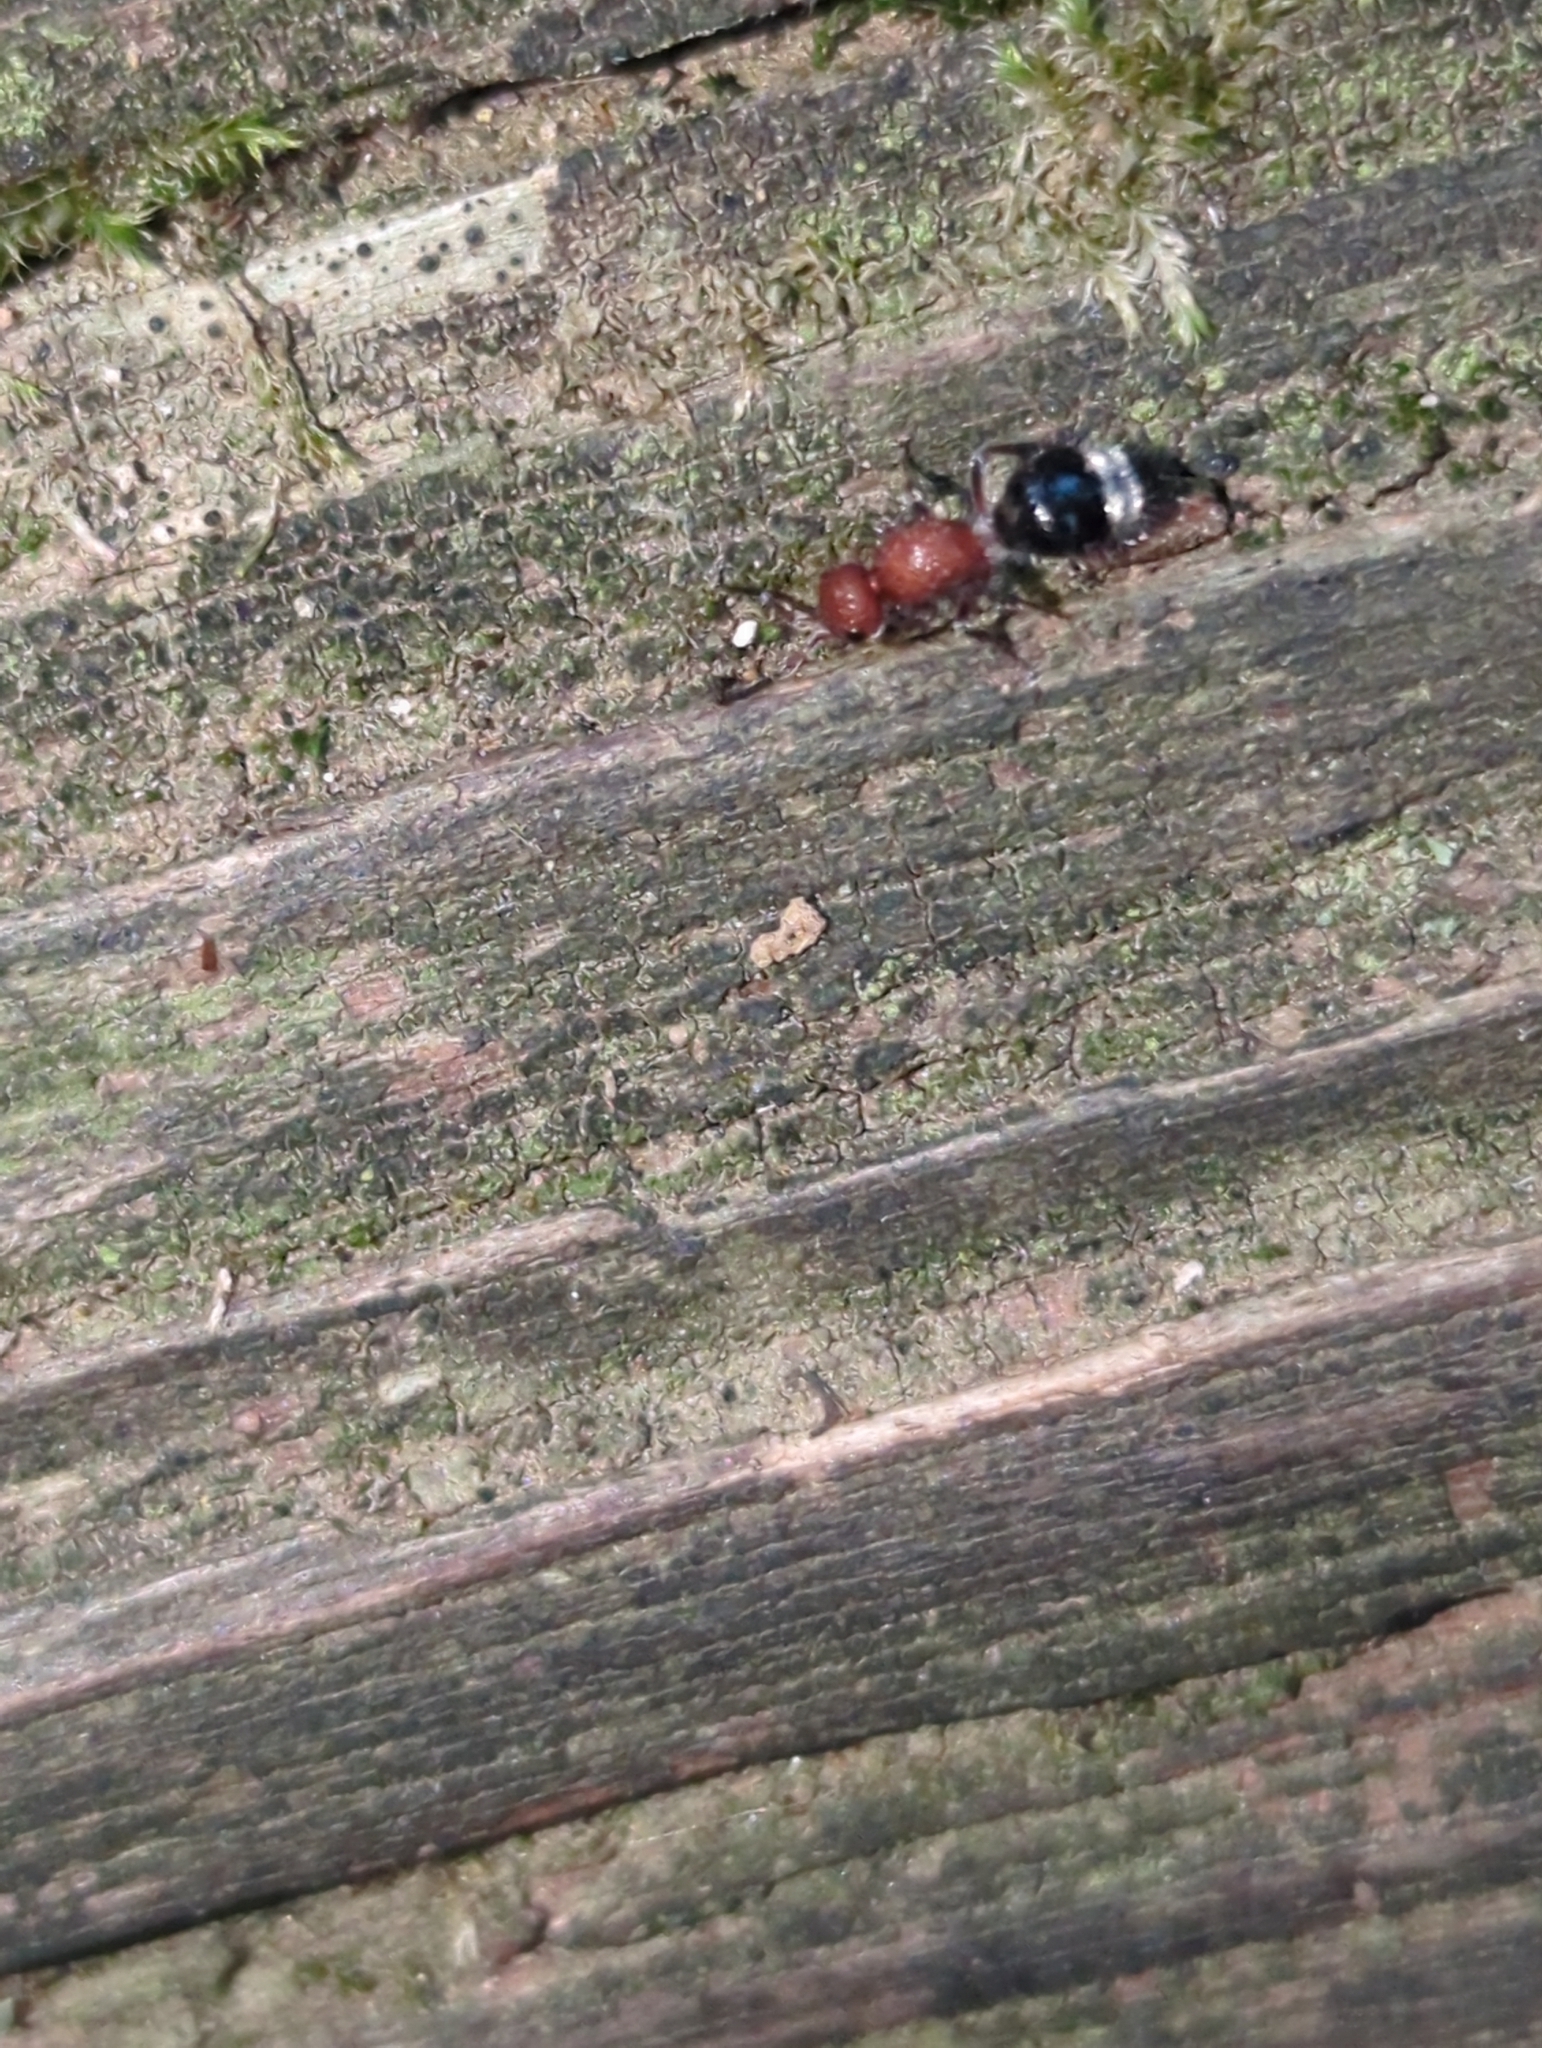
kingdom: Animalia
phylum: Arthropoda
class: Insecta
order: Hymenoptera
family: Mutillidae
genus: Cystomutilla
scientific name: Cystomutilla ruficeps
